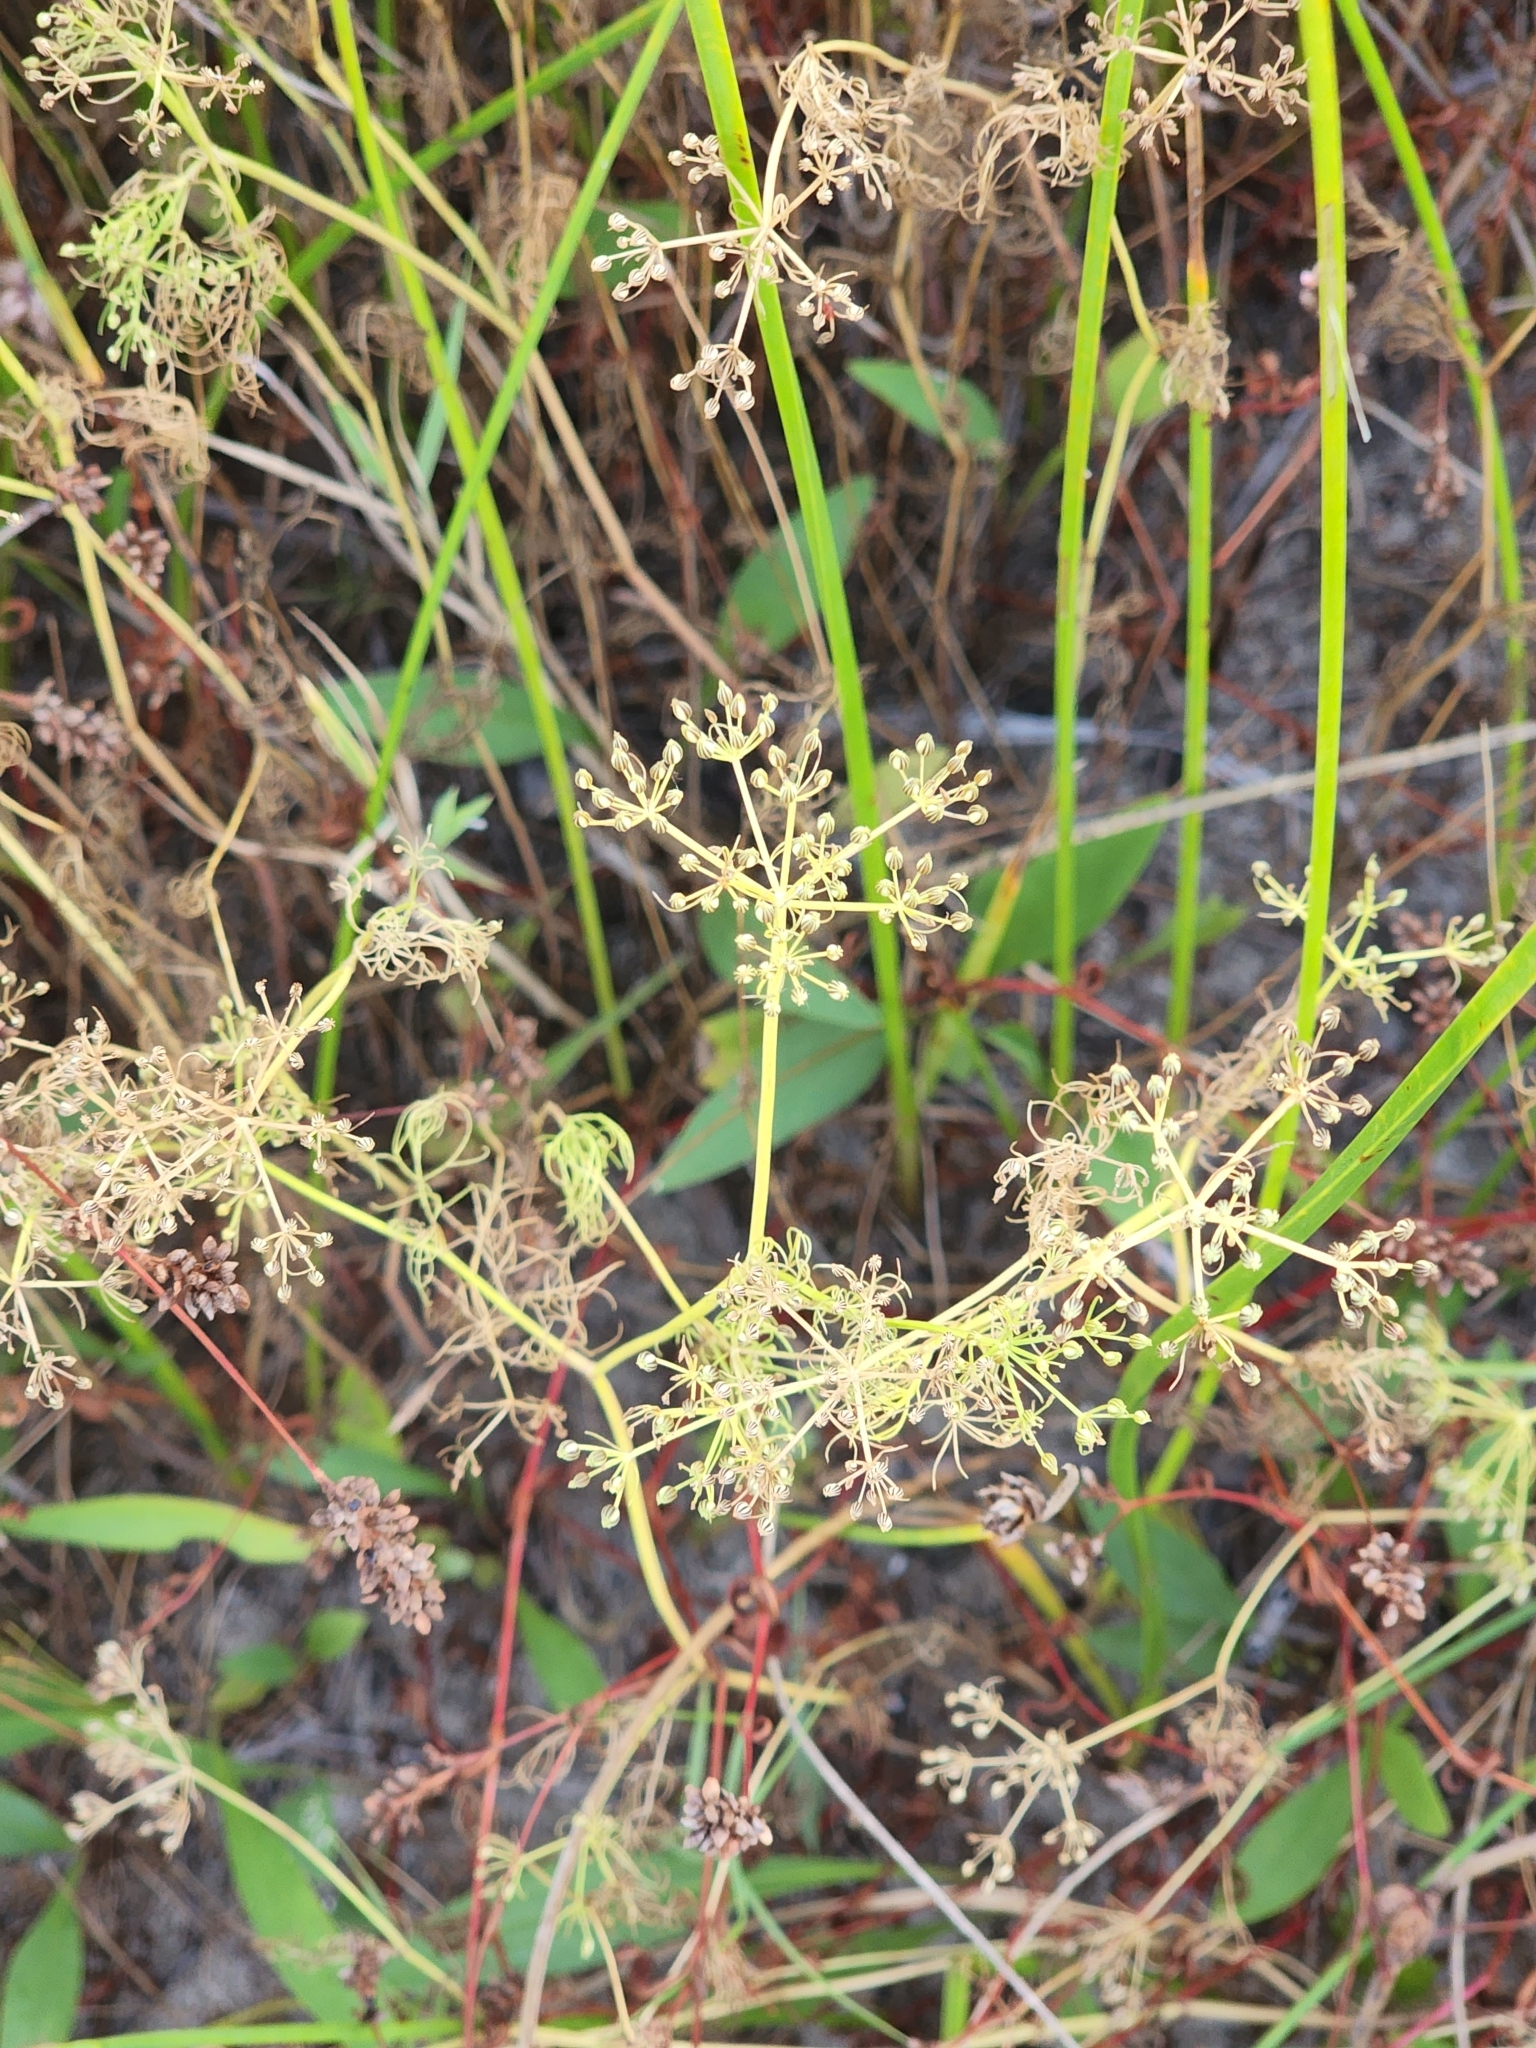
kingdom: Plantae
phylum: Tracheophyta
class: Magnoliopsida
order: Apiales
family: Apiaceae
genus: Ptilimnium
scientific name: Ptilimnium capillaceum
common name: Herbwilliam
